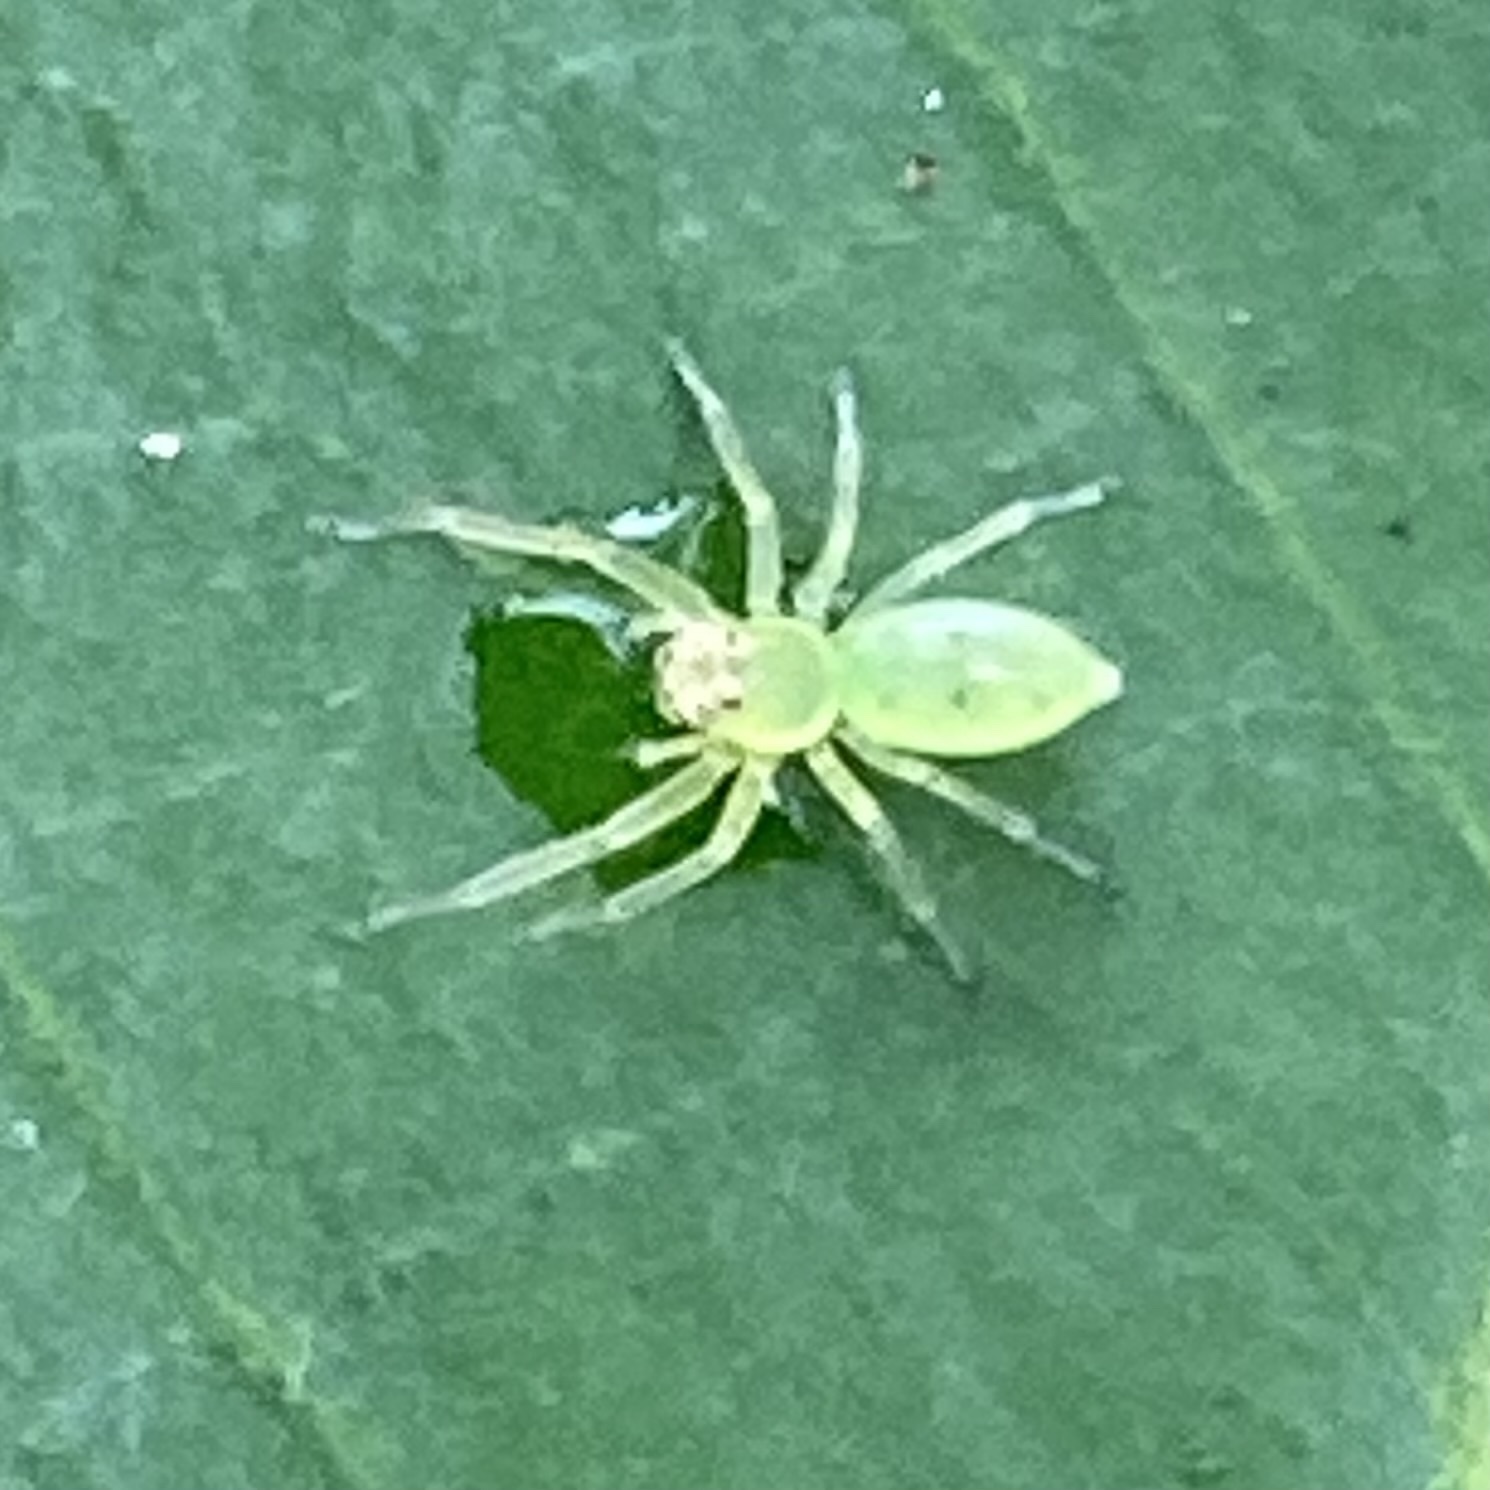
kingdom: Animalia
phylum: Arthropoda
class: Arachnida
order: Araneae
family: Salticidae
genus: Lyssomanes
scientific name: Lyssomanes viridis
